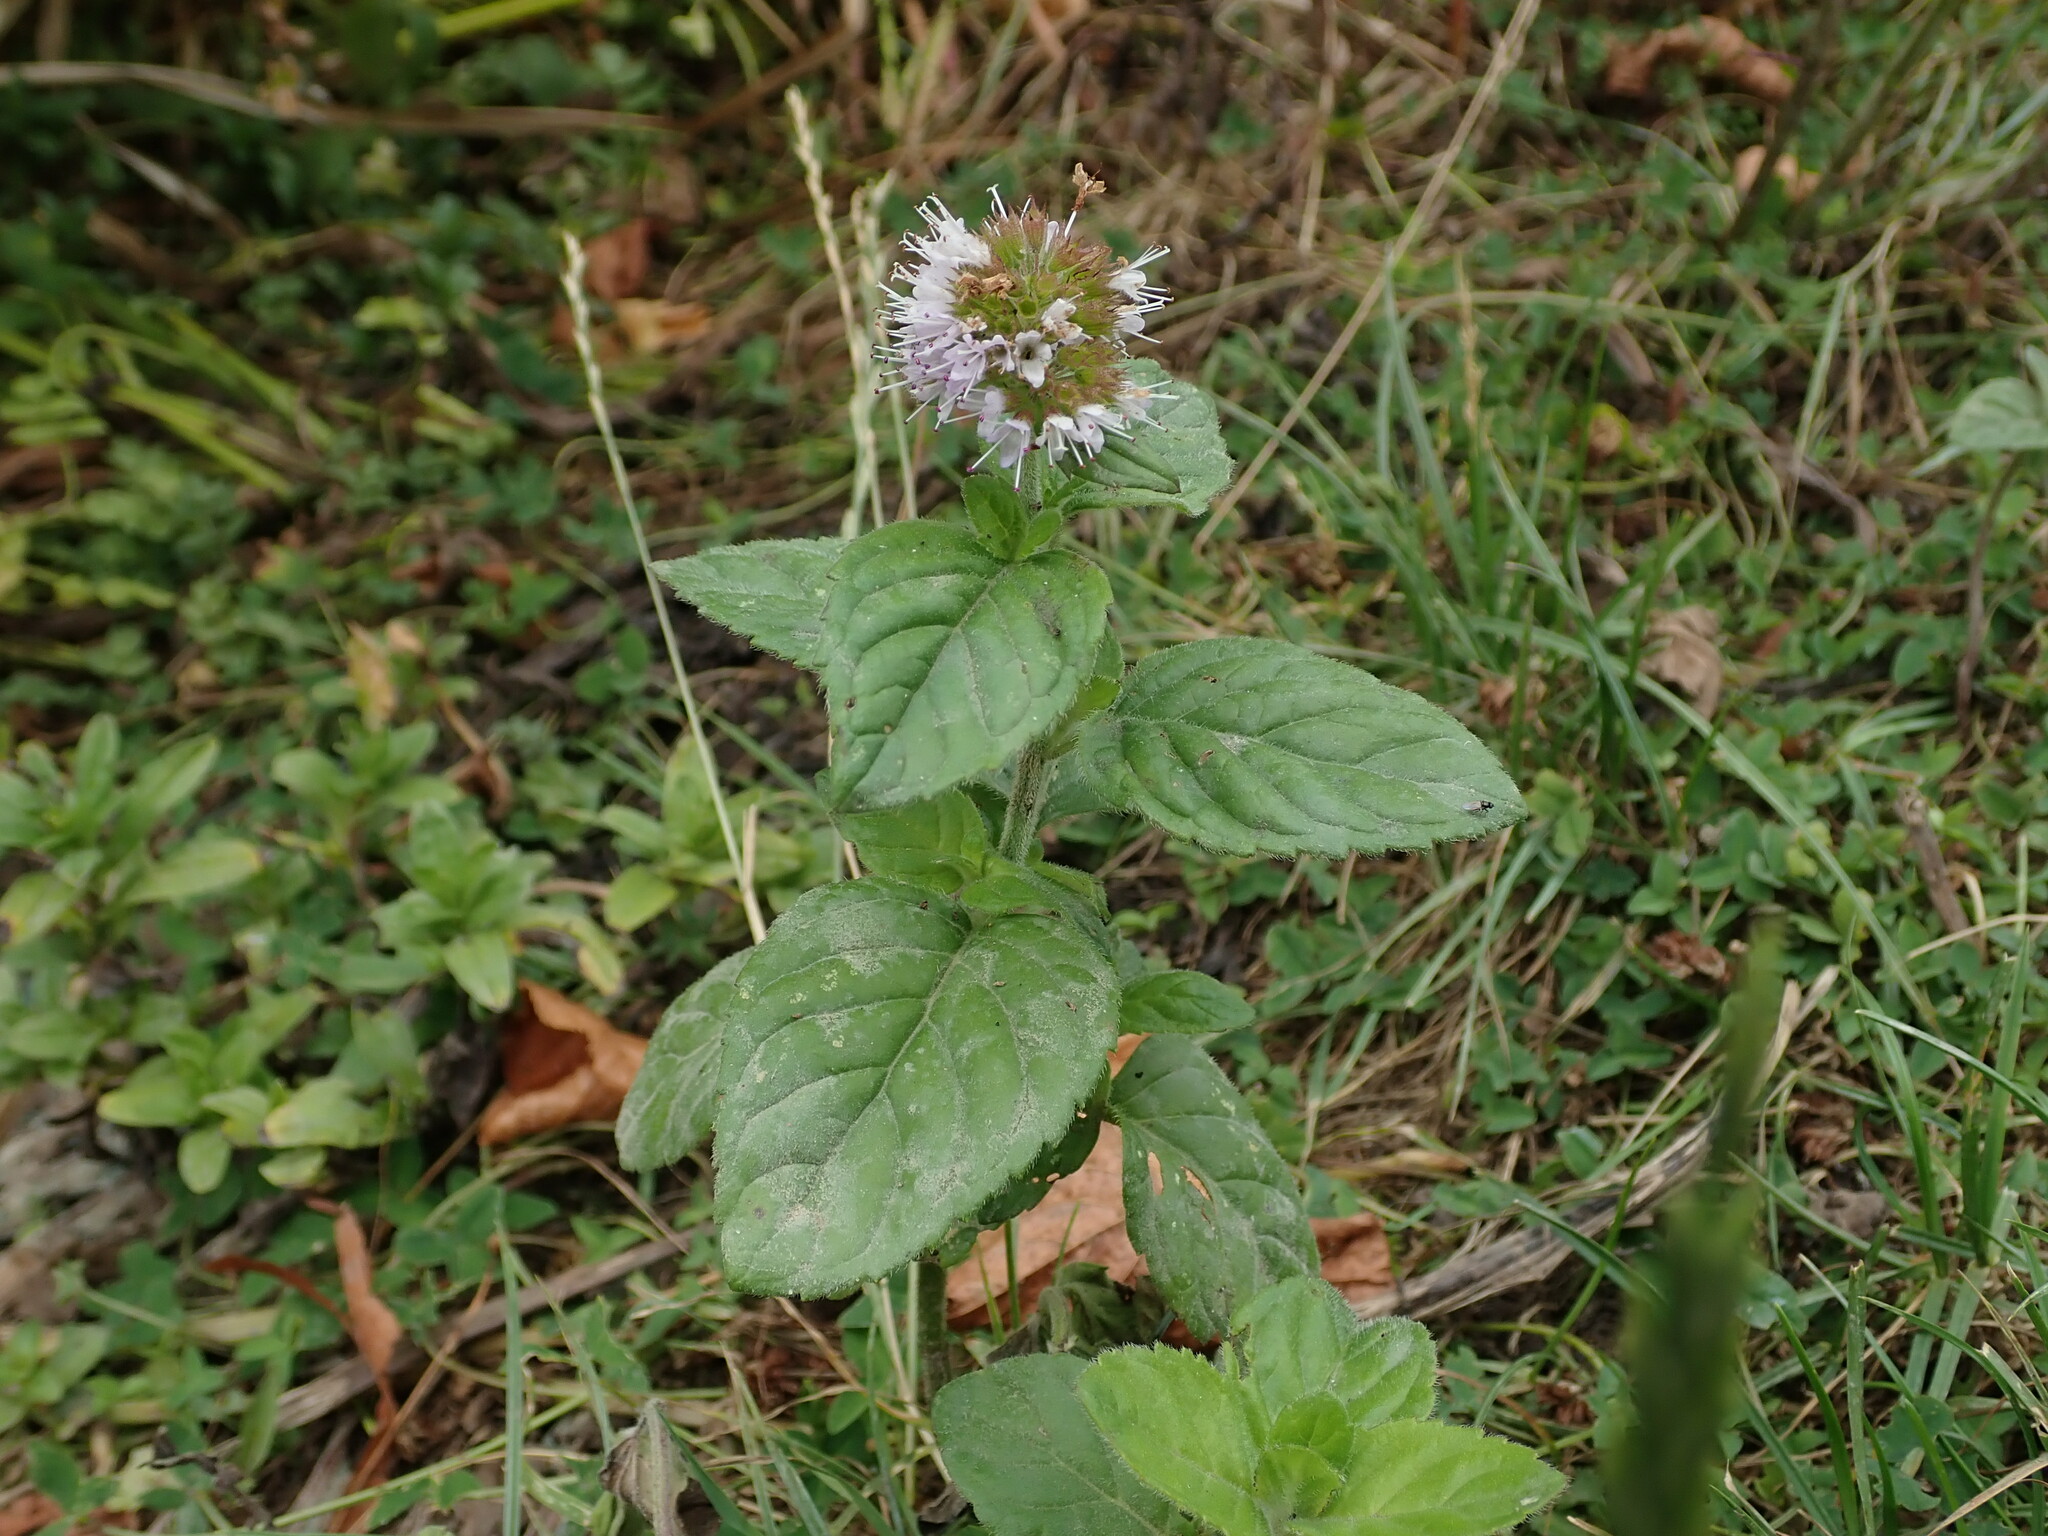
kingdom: Plantae
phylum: Tracheophyta
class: Magnoliopsida
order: Lamiales
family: Lamiaceae
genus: Mentha
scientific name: Mentha aquatica
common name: Water mint
